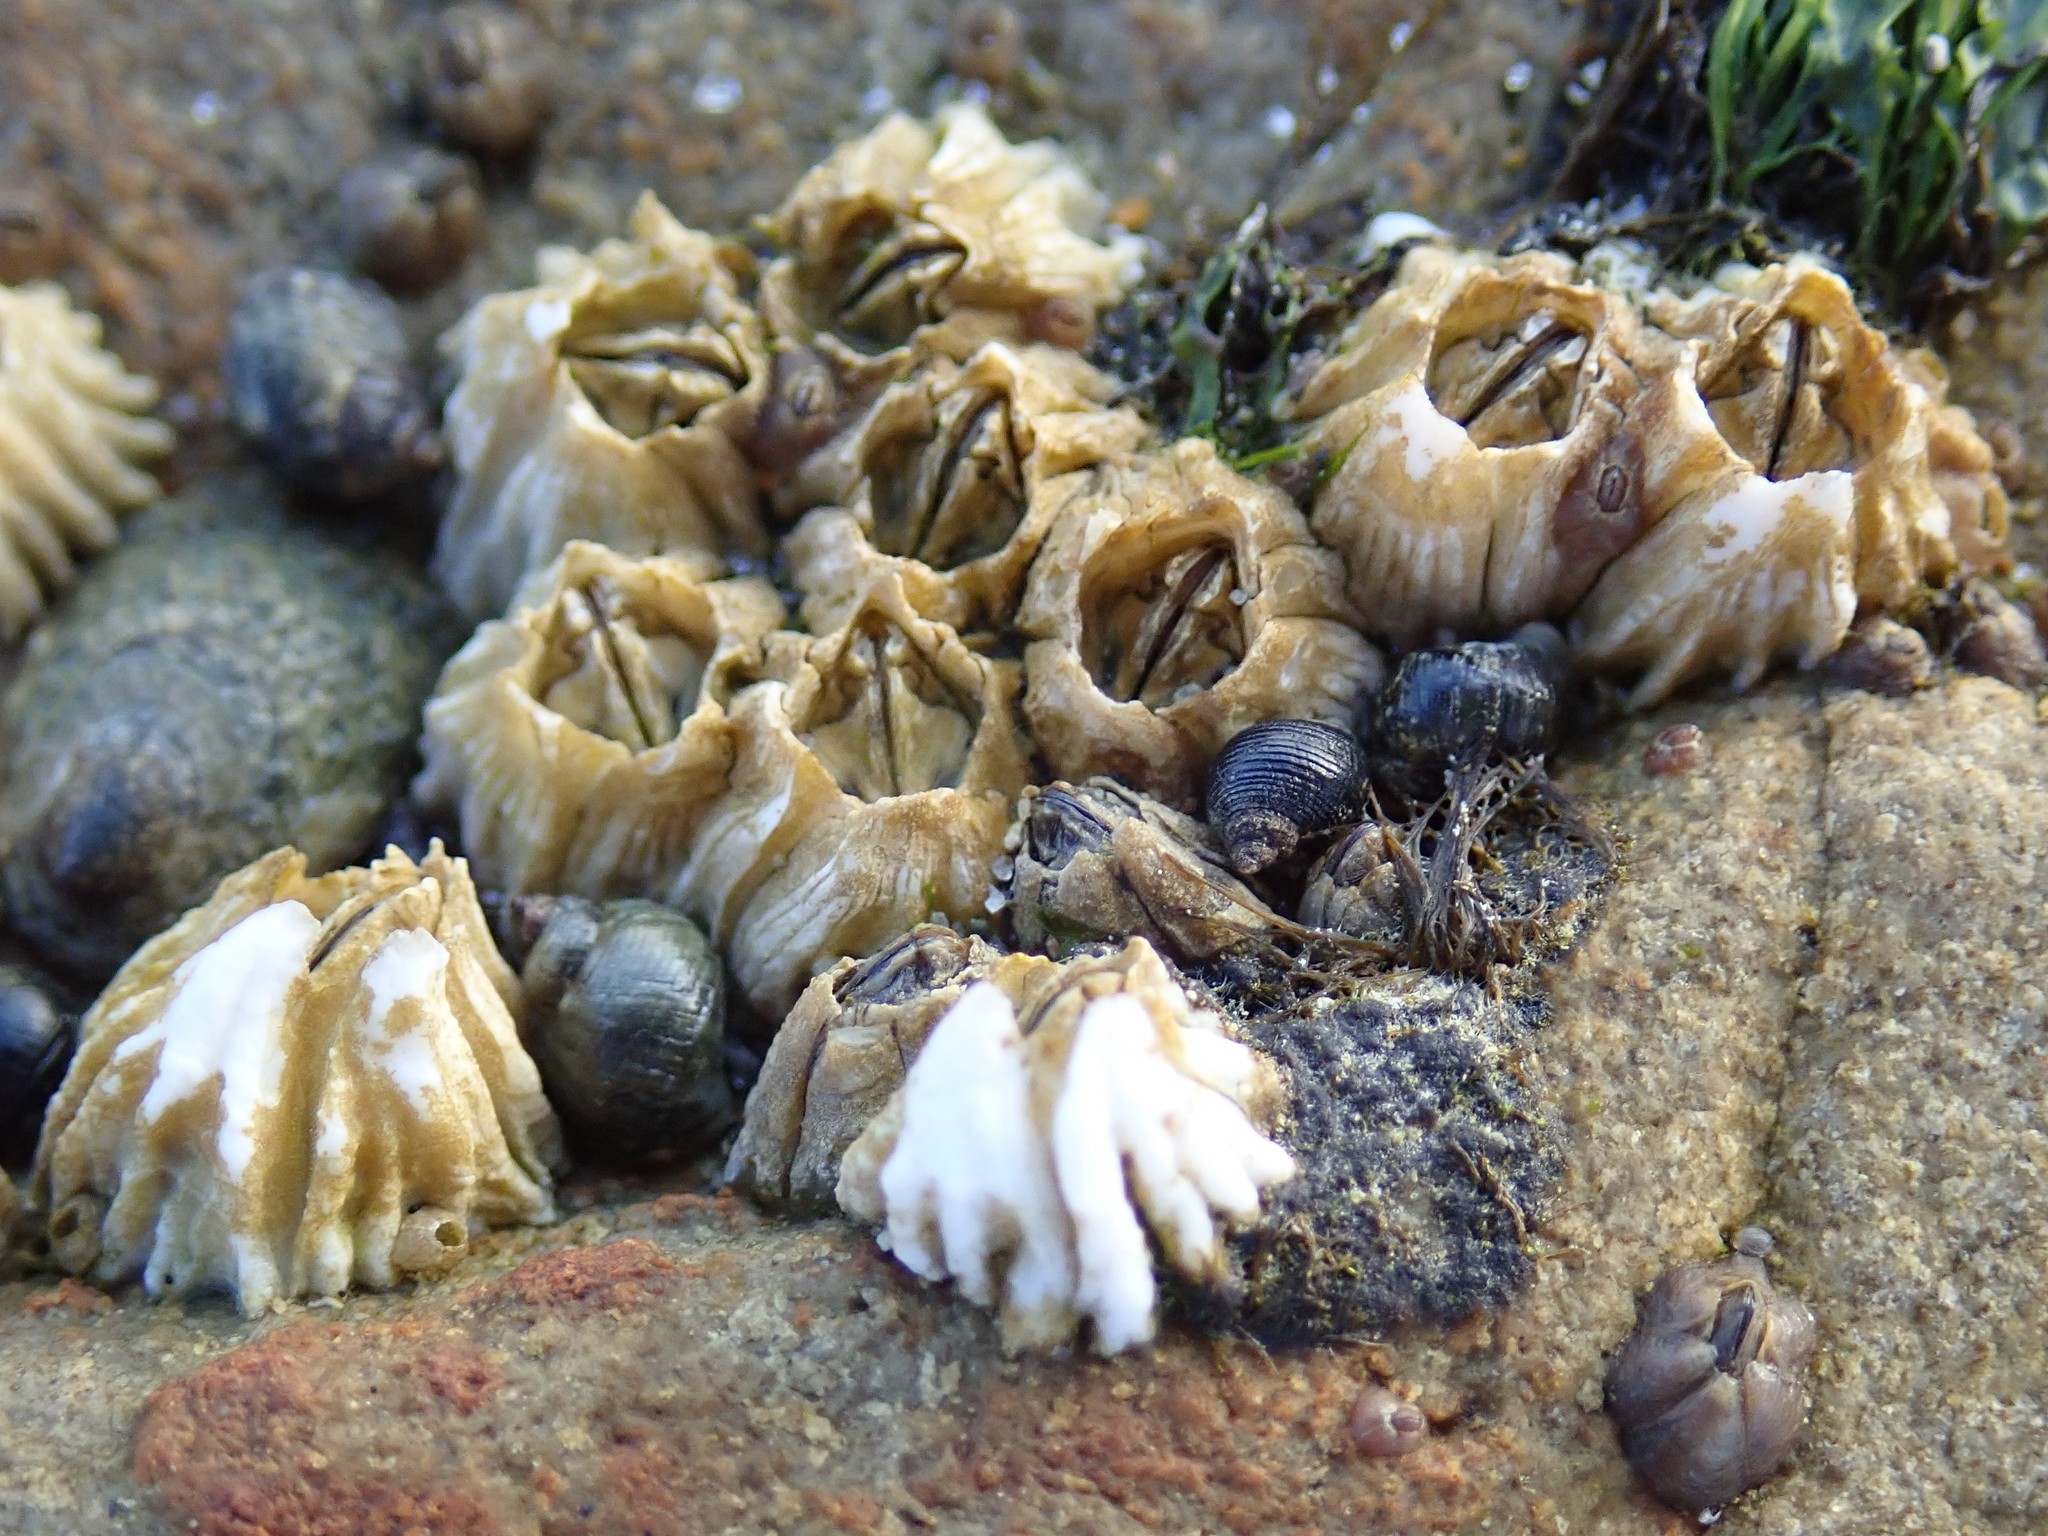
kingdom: Animalia
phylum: Arthropoda
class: Maxillopoda
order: Sessilia
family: Balanidae
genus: Balanus
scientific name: Balanus glandula
